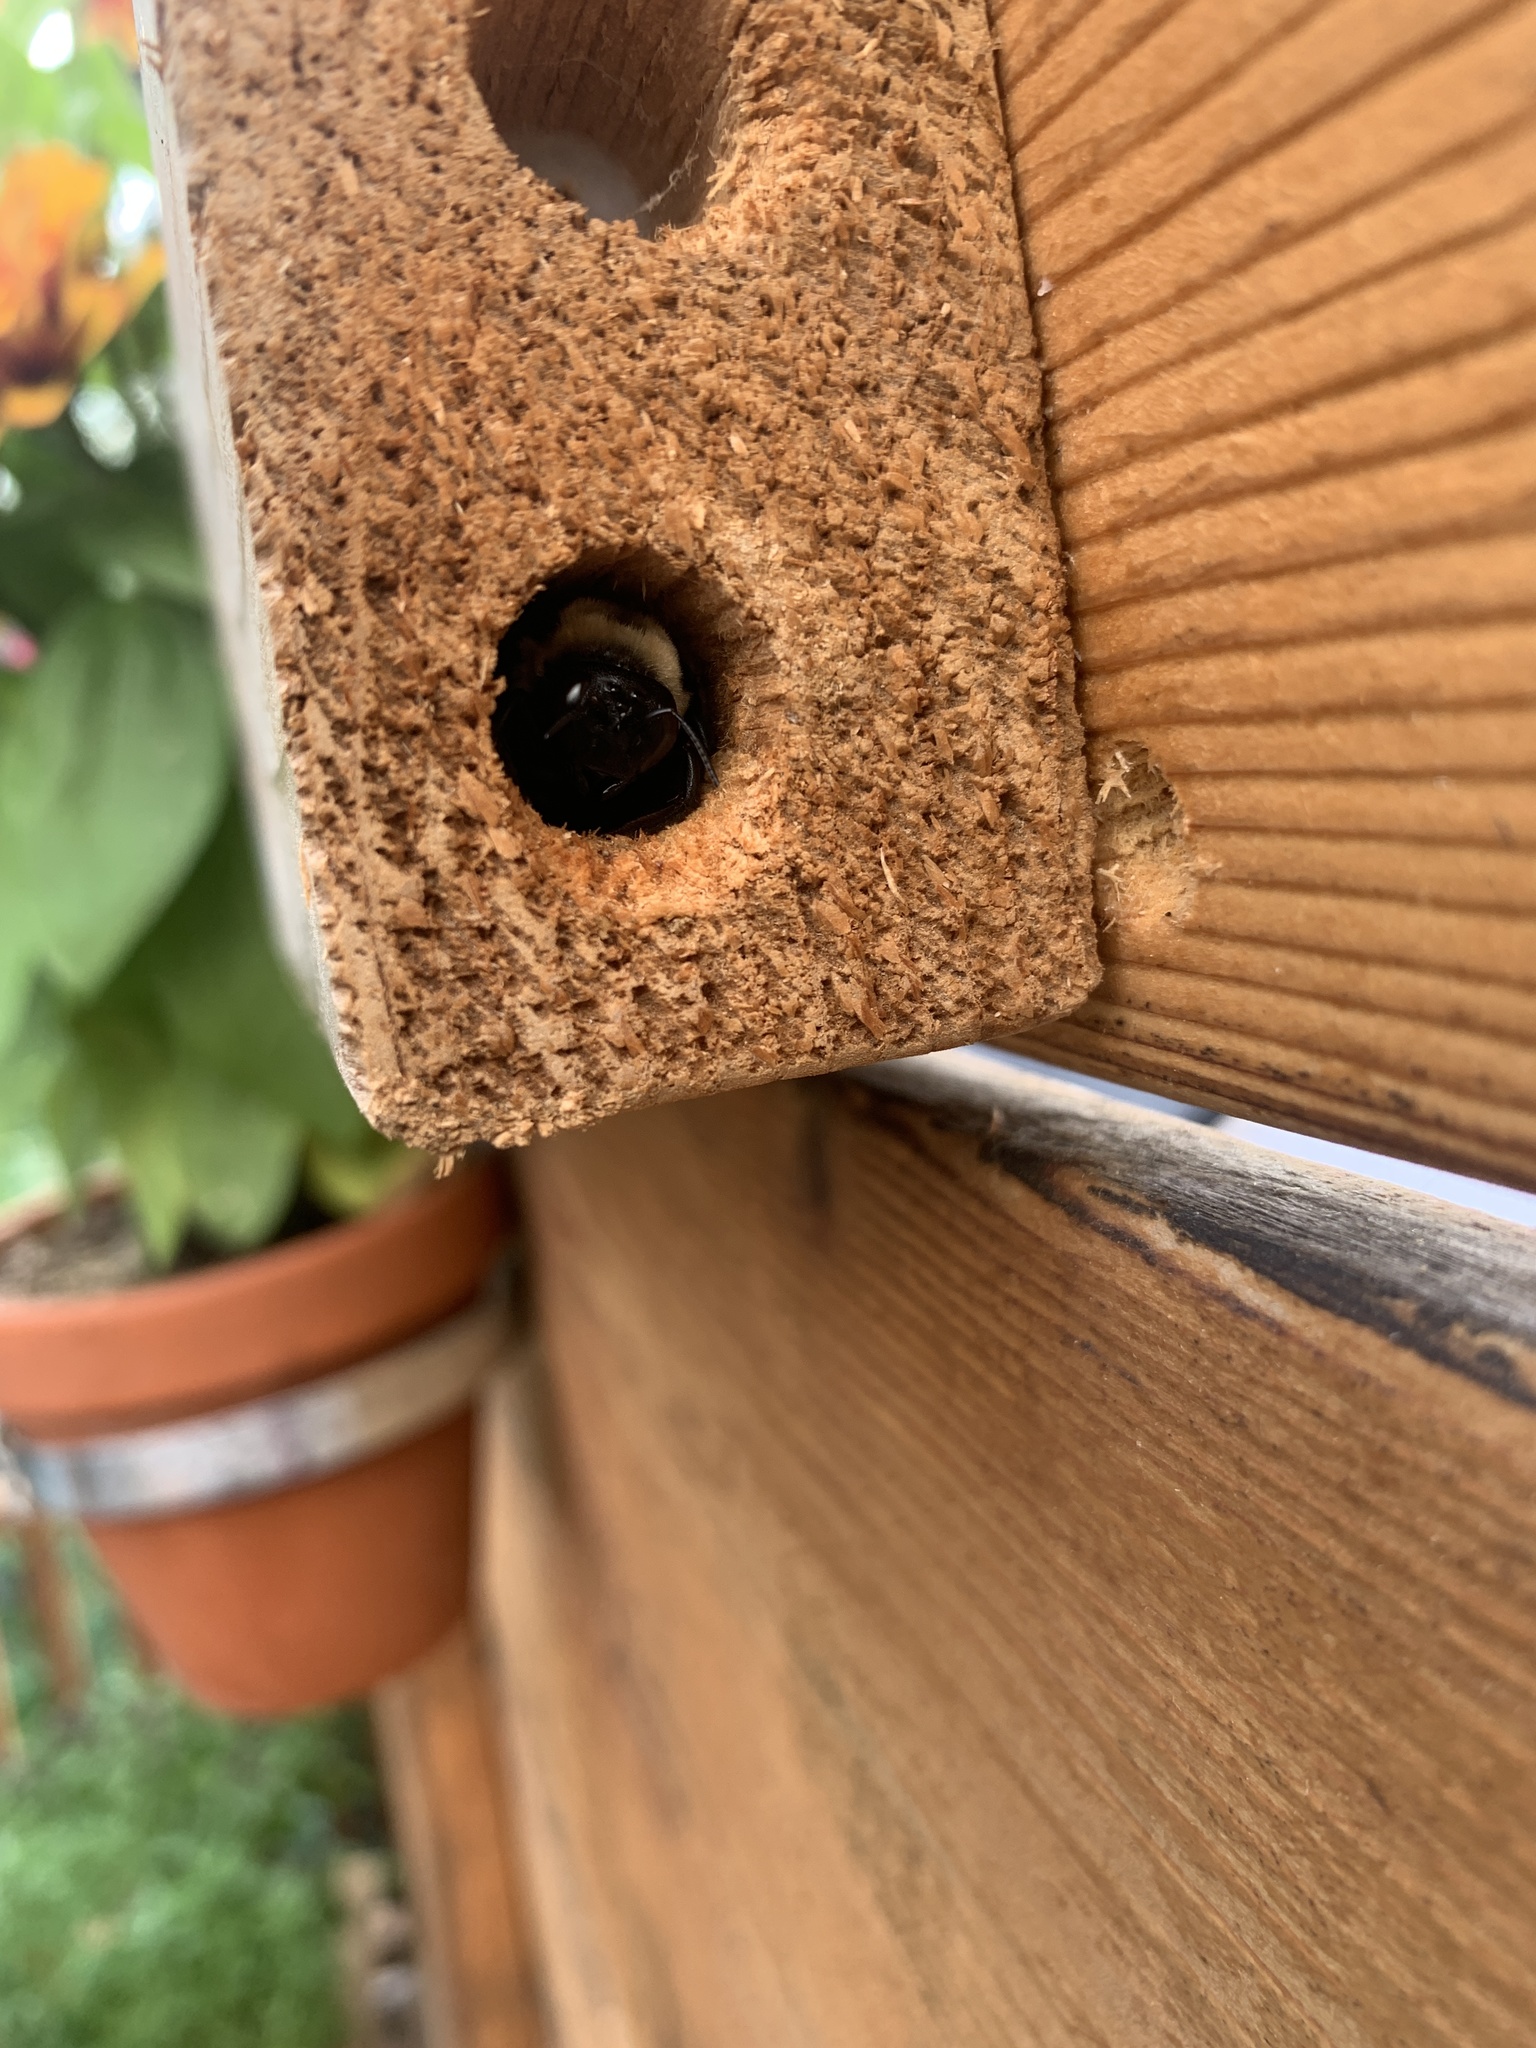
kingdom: Animalia
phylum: Arthropoda
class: Insecta
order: Hymenoptera
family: Apidae
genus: Xylocopa
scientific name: Xylocopa virginica
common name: Carpenter bee
